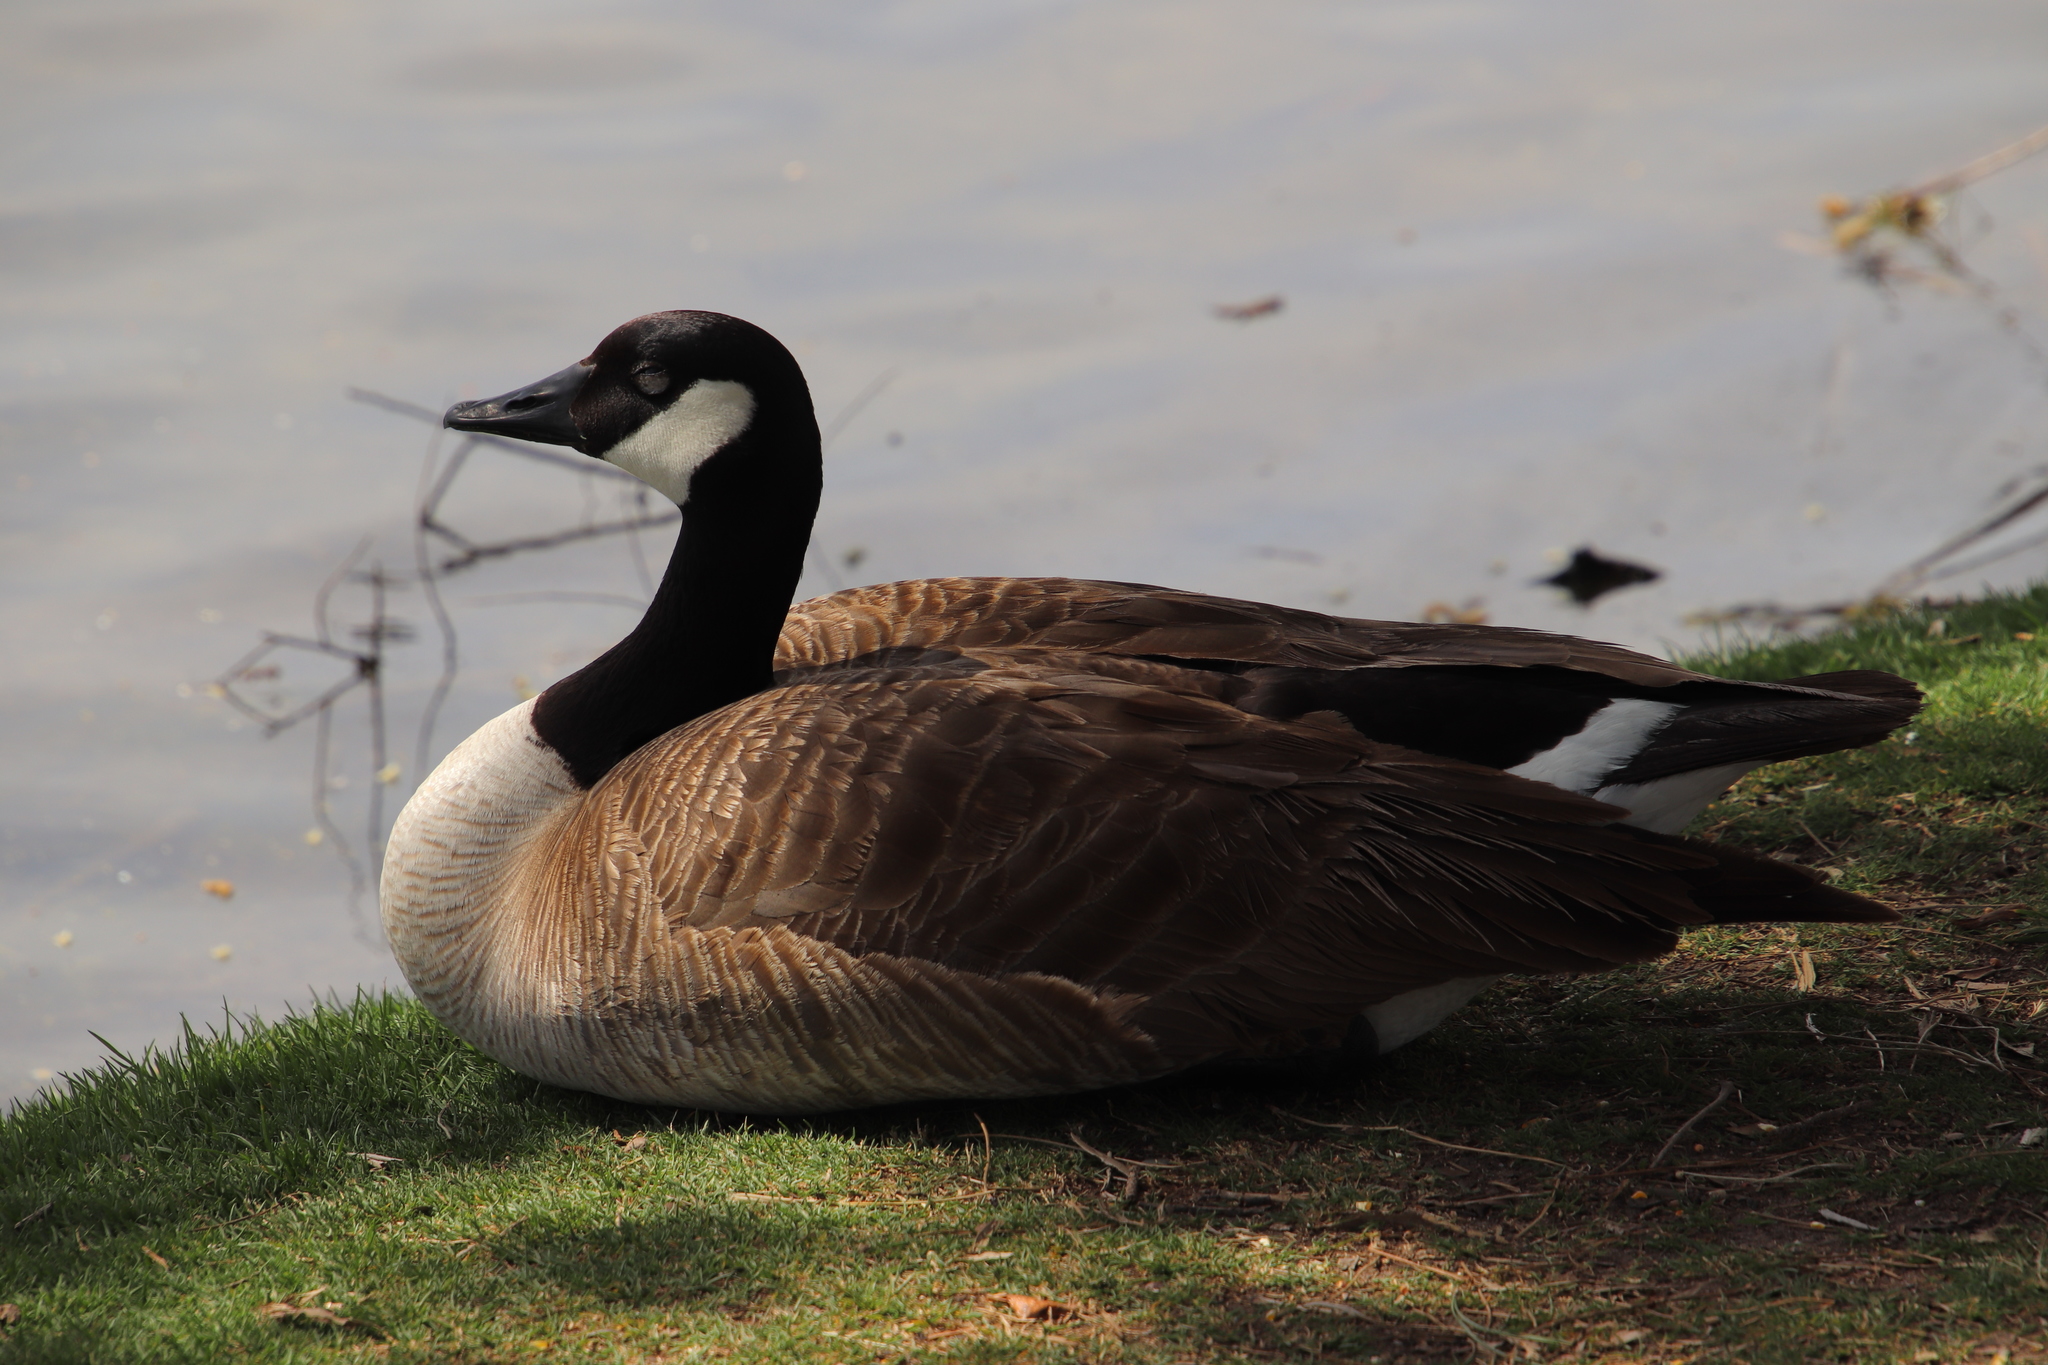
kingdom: Animalia
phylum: Chordata
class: Aves
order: Anseriformes
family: Anatidae
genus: Branta
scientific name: Branta canadensis
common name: Canada goose
